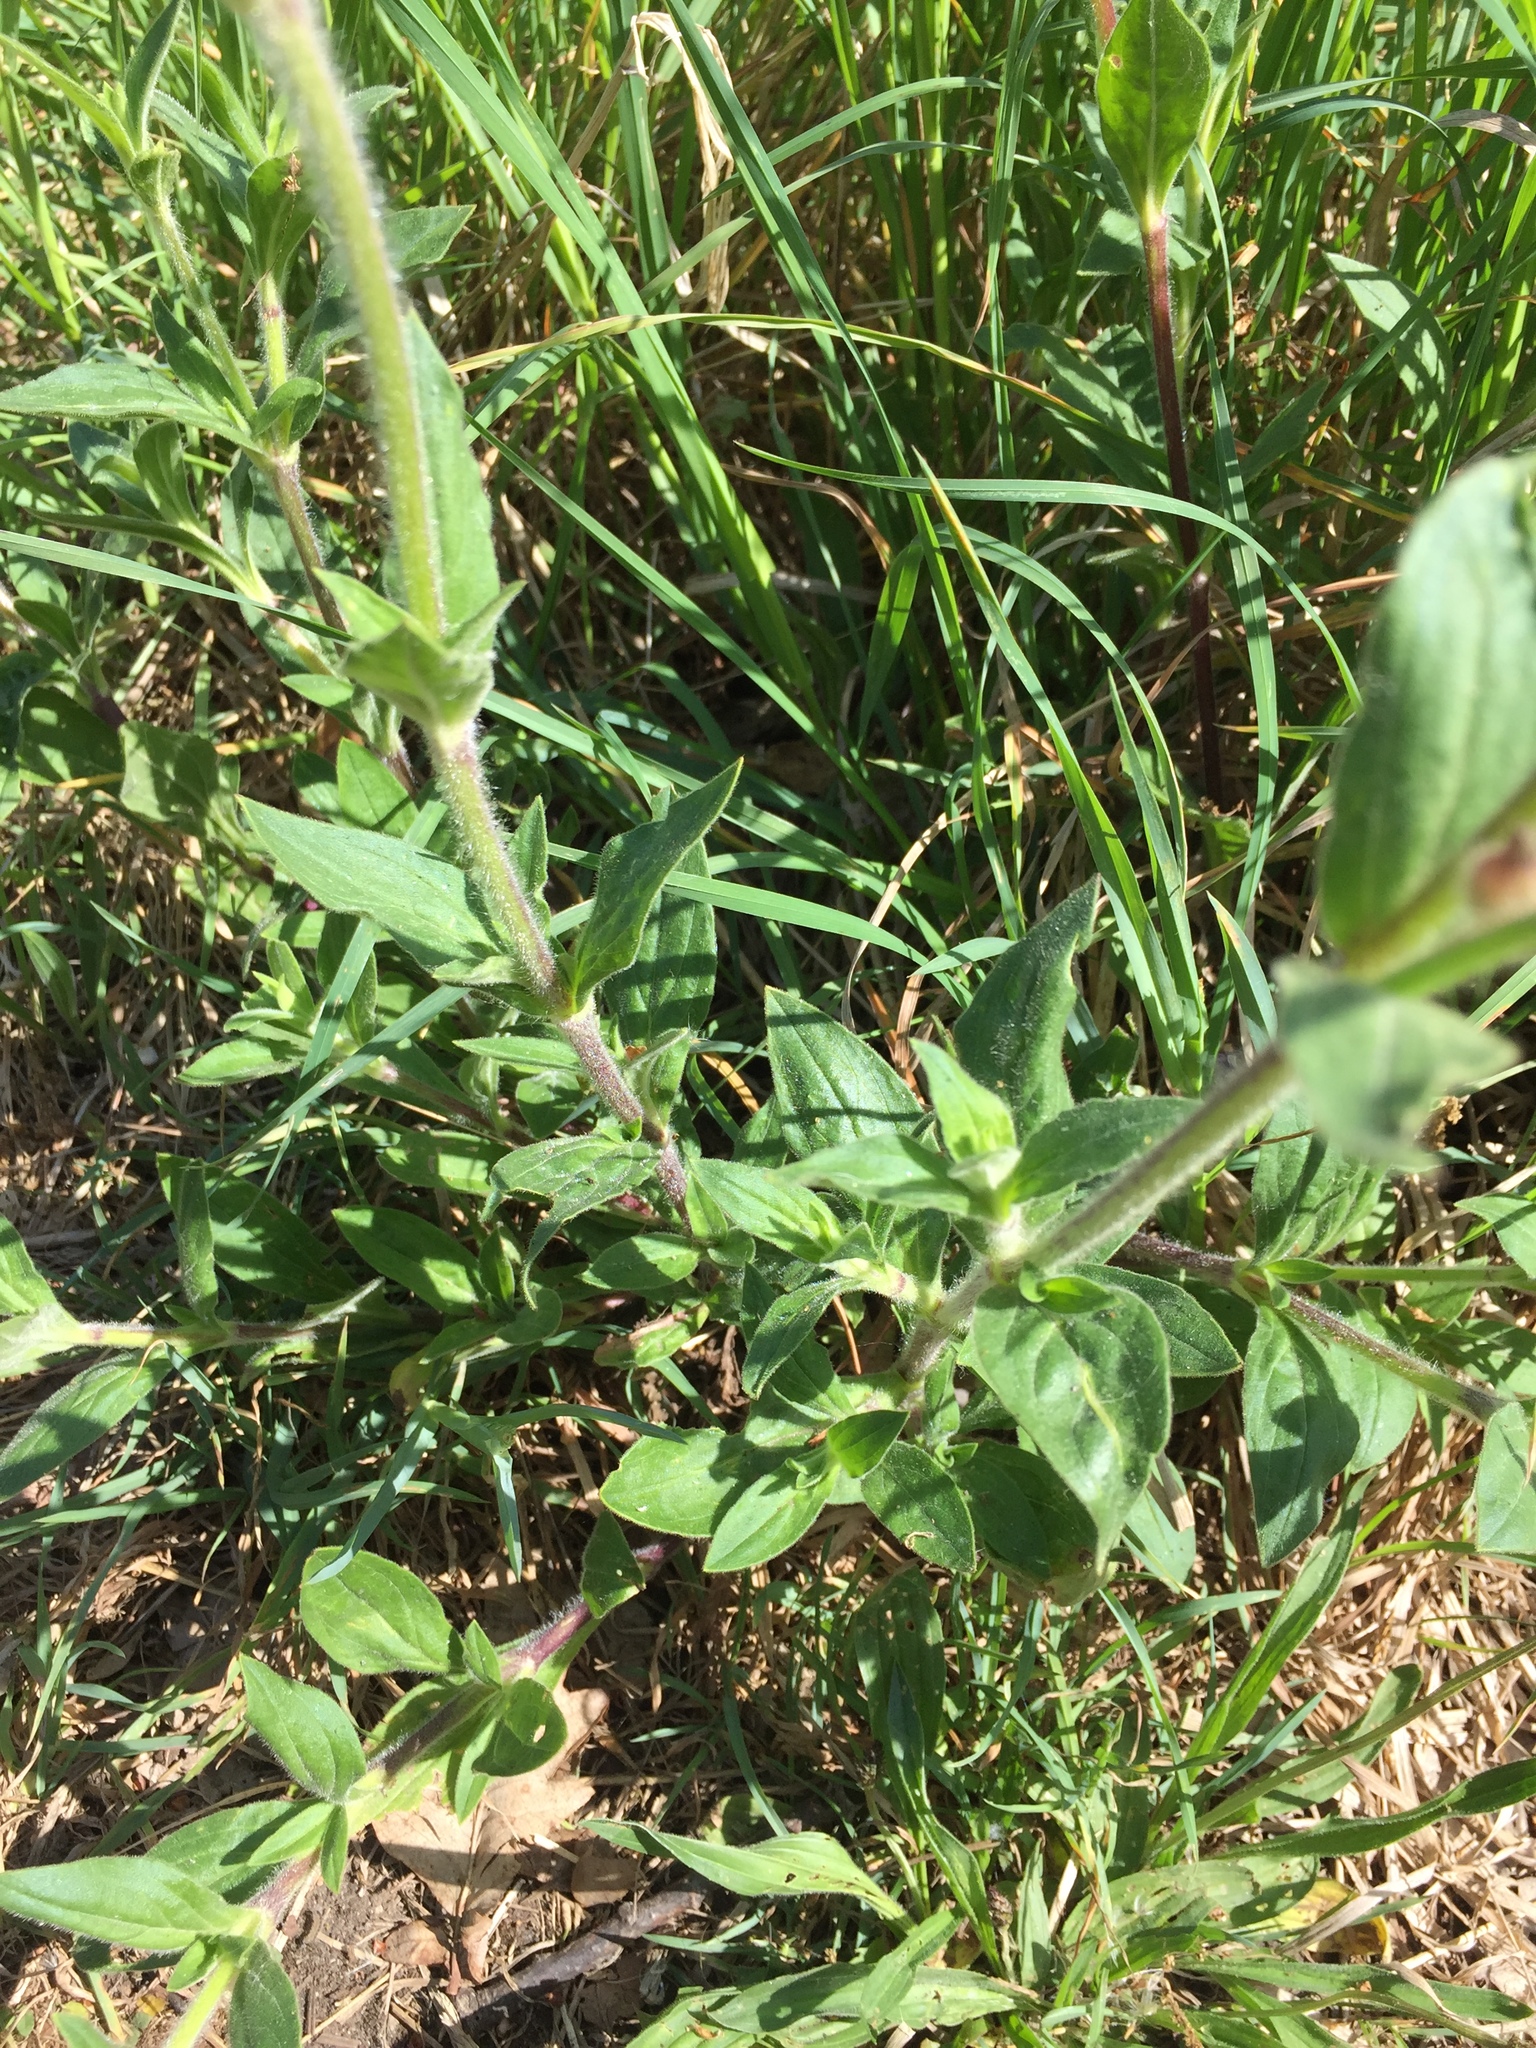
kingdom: Plantae
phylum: Tracheophyta
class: Magnoliopsida
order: Caryophyllales
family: Caryophyllaceae
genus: Silene
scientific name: Silene latifolia
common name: White campion
